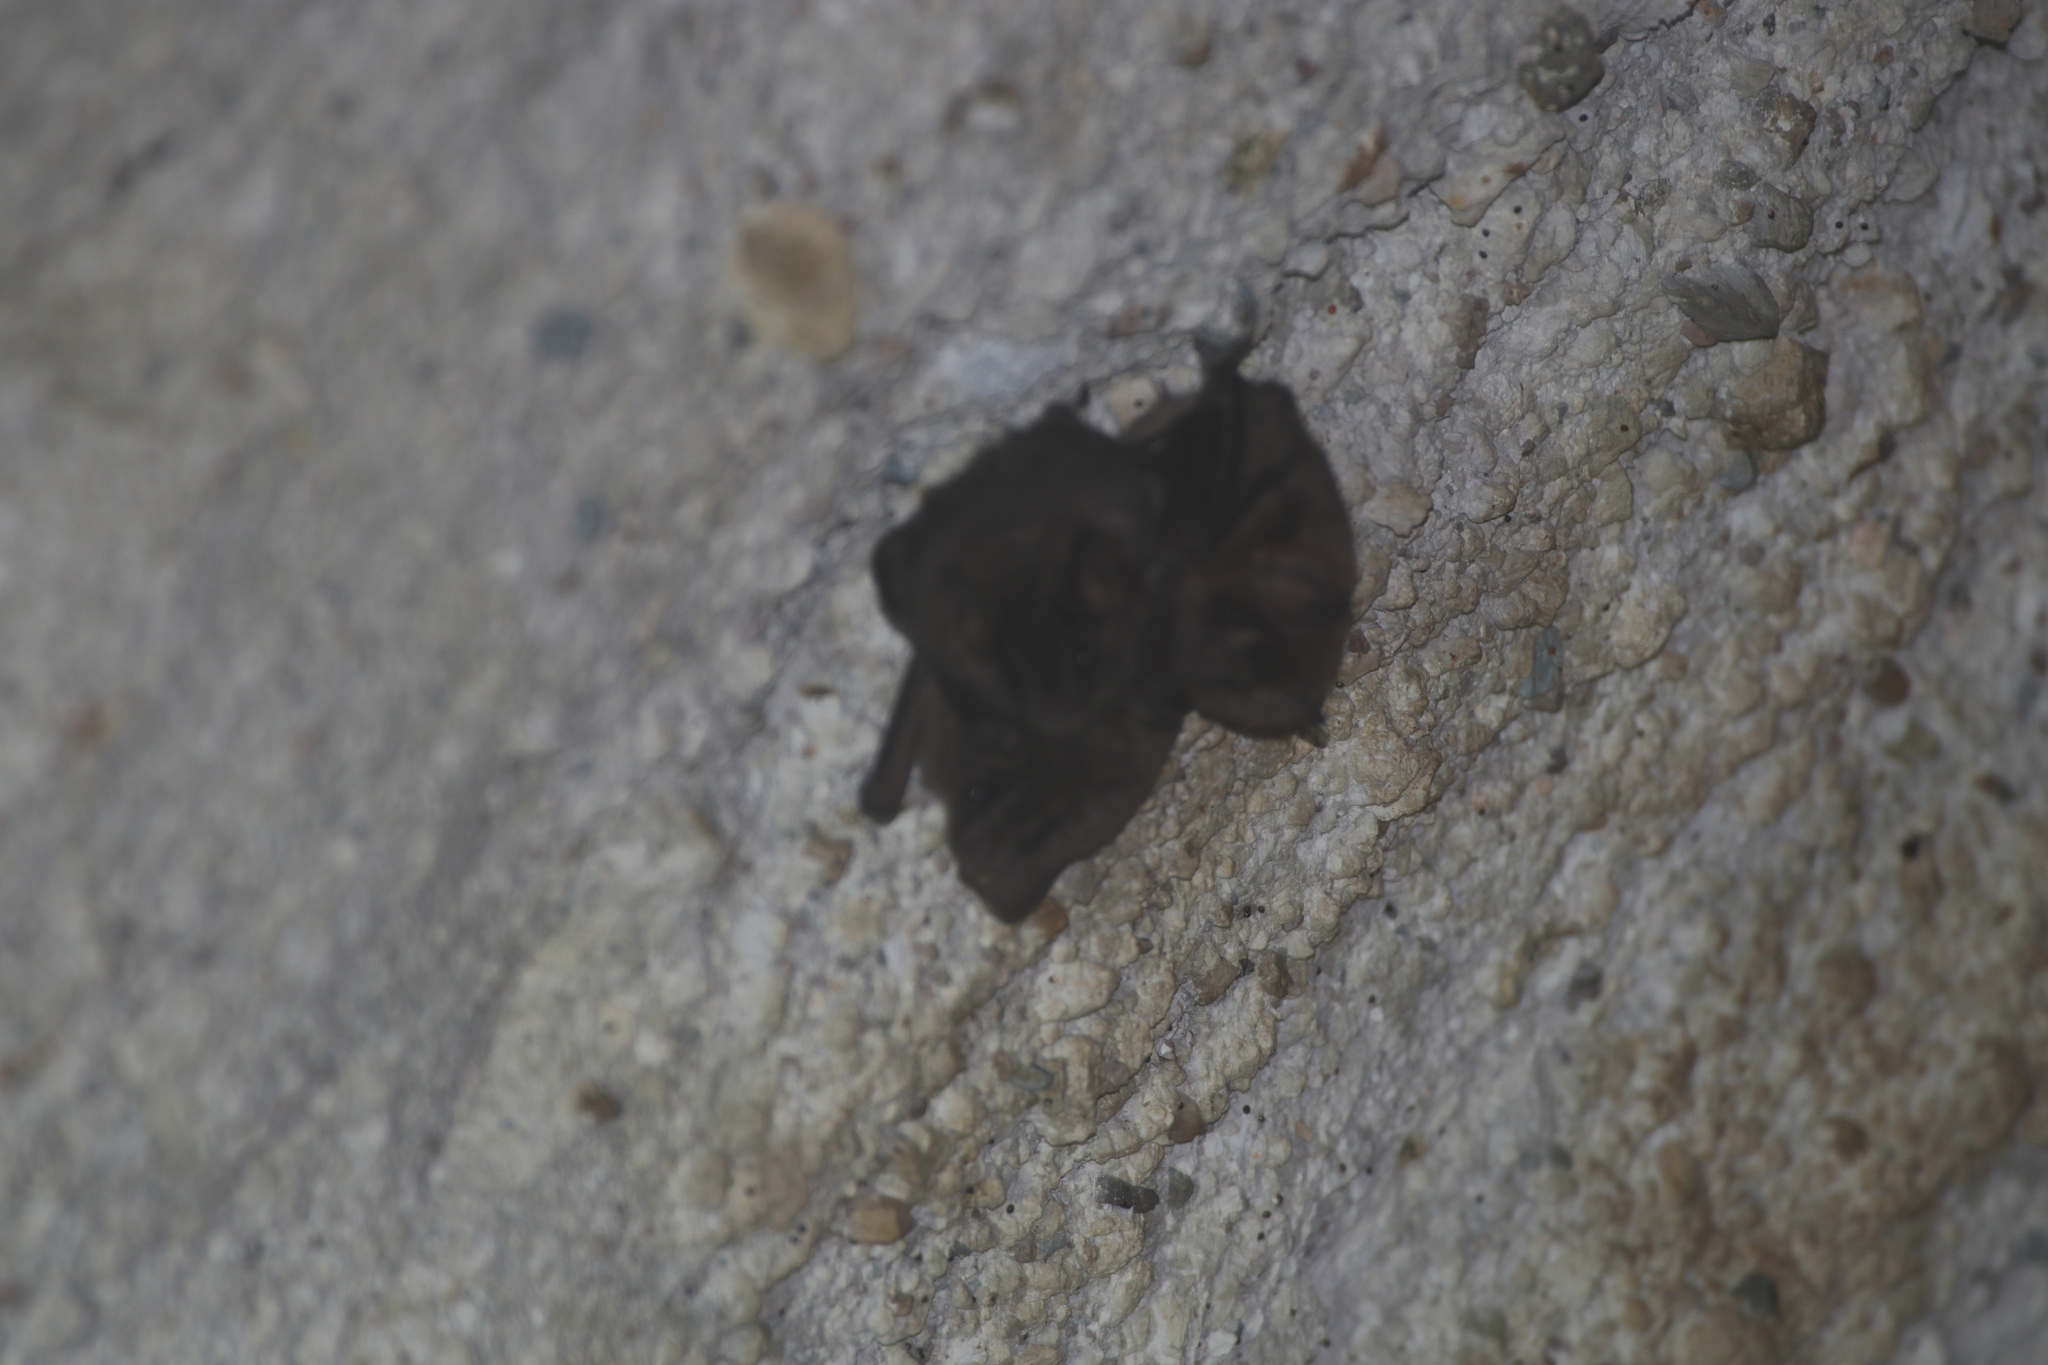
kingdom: Animalia
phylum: Chordata
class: Mammalia
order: Chiroptera
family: Phyllostomidae
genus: Artibeus
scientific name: Artibeus aztecus
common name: Aztec fruit-eating bat
